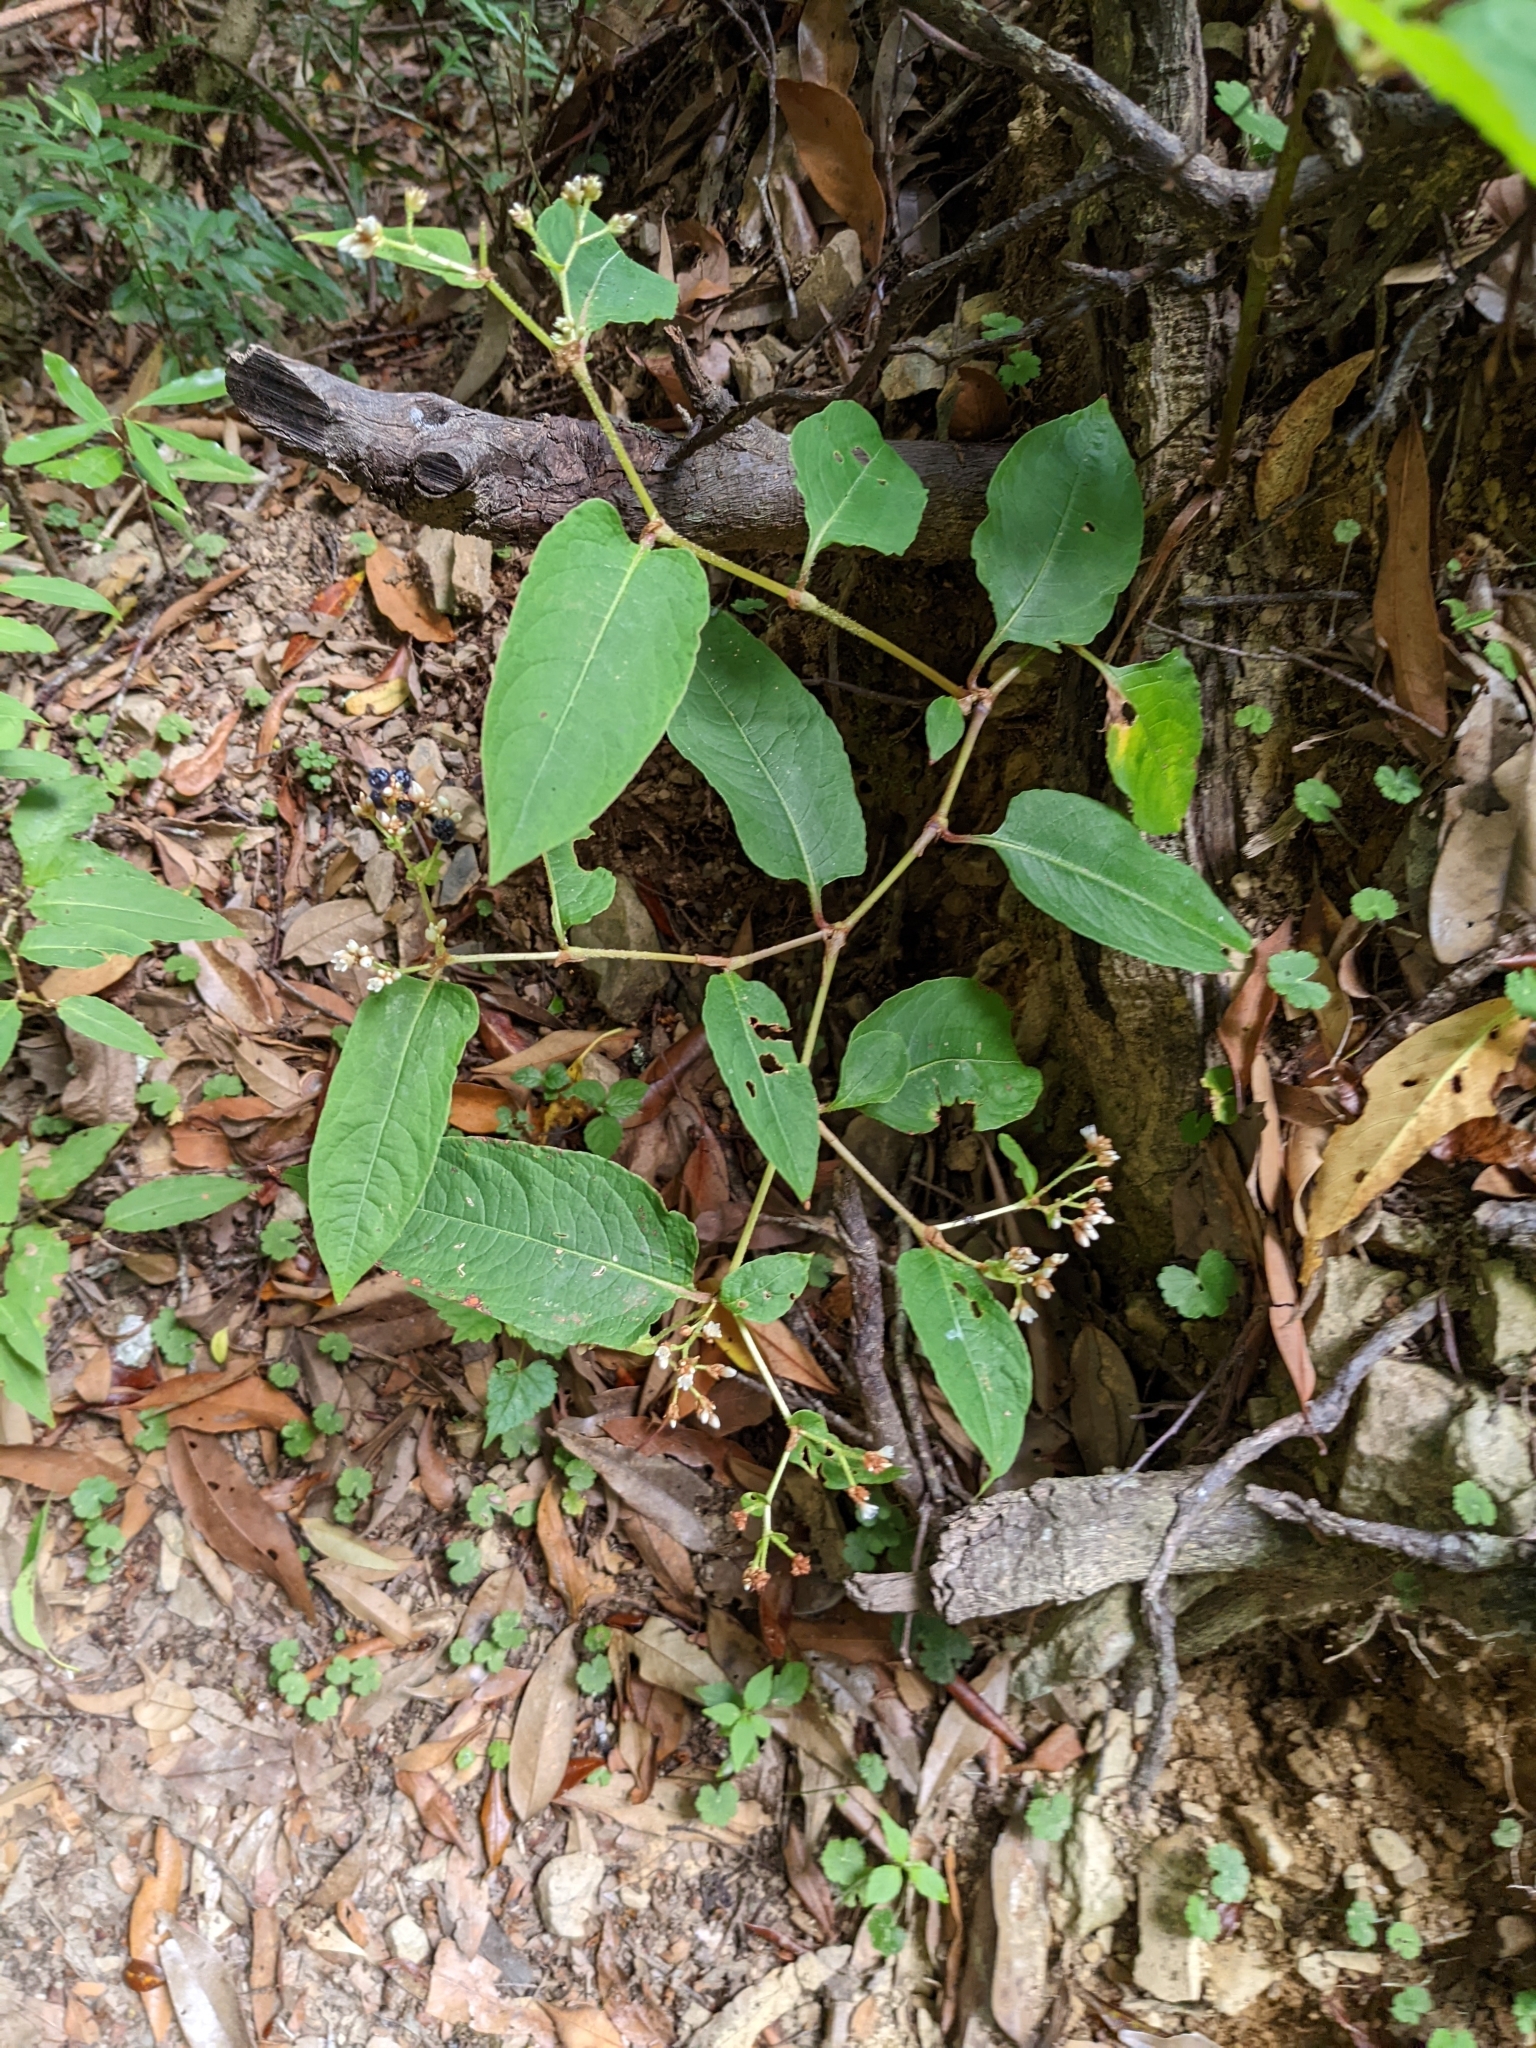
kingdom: Plantae
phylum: Tracheophyta
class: Magnoliopsida
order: Caryophyllales
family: Polygonaceae
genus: Persicaria
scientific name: Persicaria chinensis
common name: Chinese knotweed
